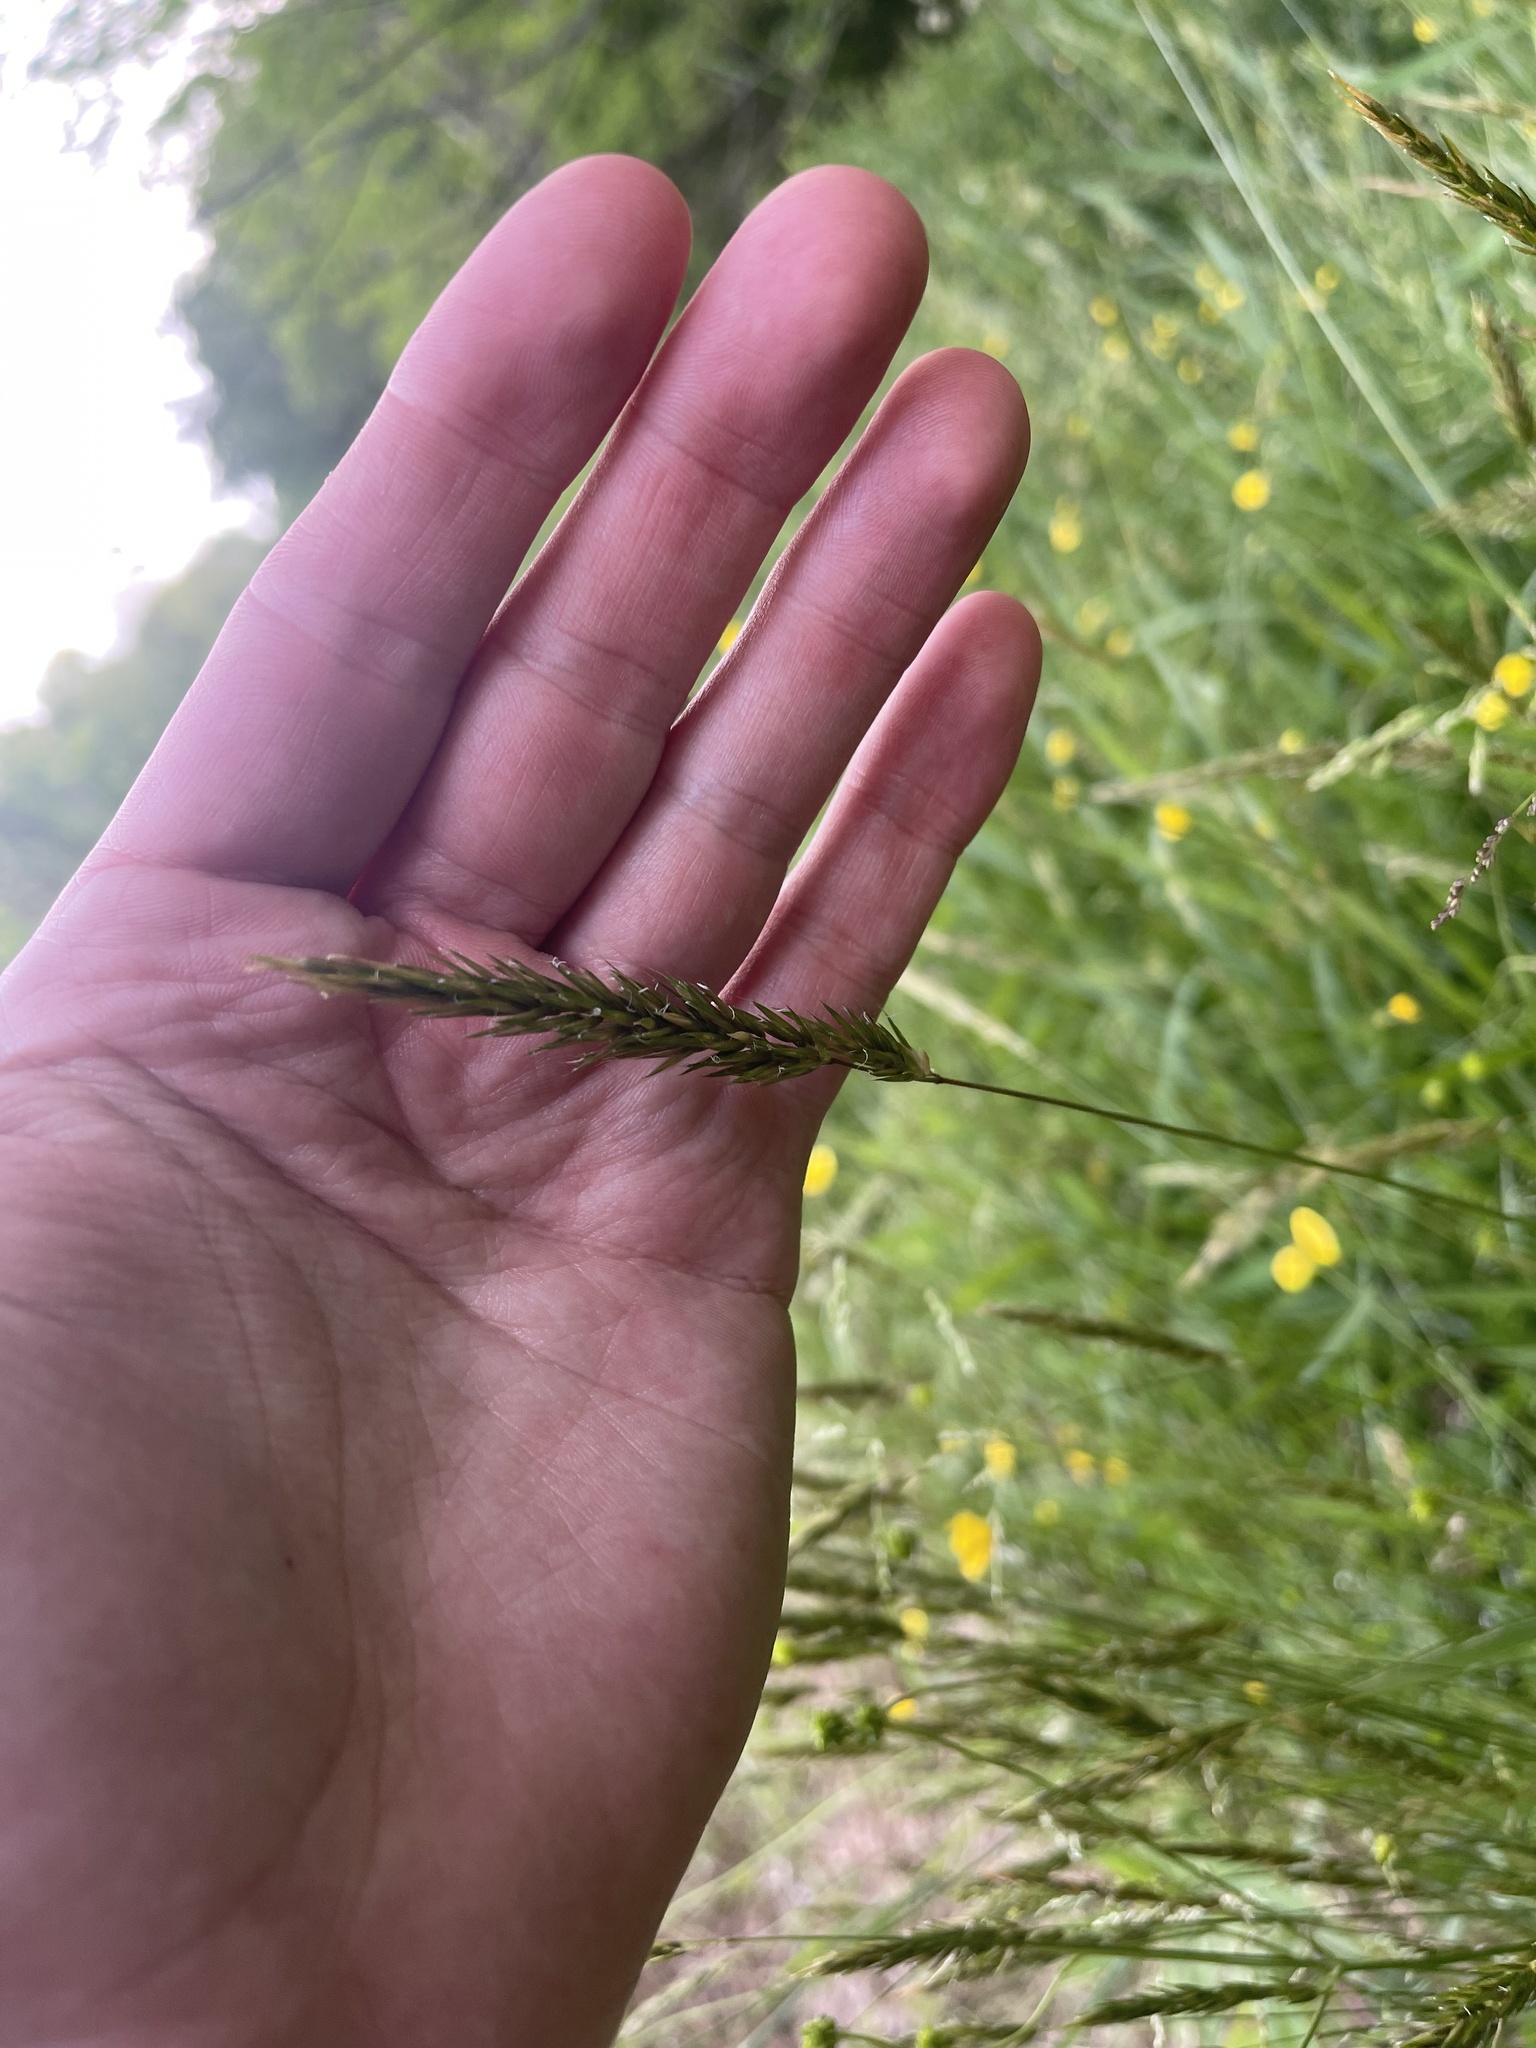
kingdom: Plantae
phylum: Tracheophyta
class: Liliopsida
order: Poales
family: Poaceae
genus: Anthoxanthum
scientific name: Anthoxanthum odoratum
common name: Sweet vernalgrass
